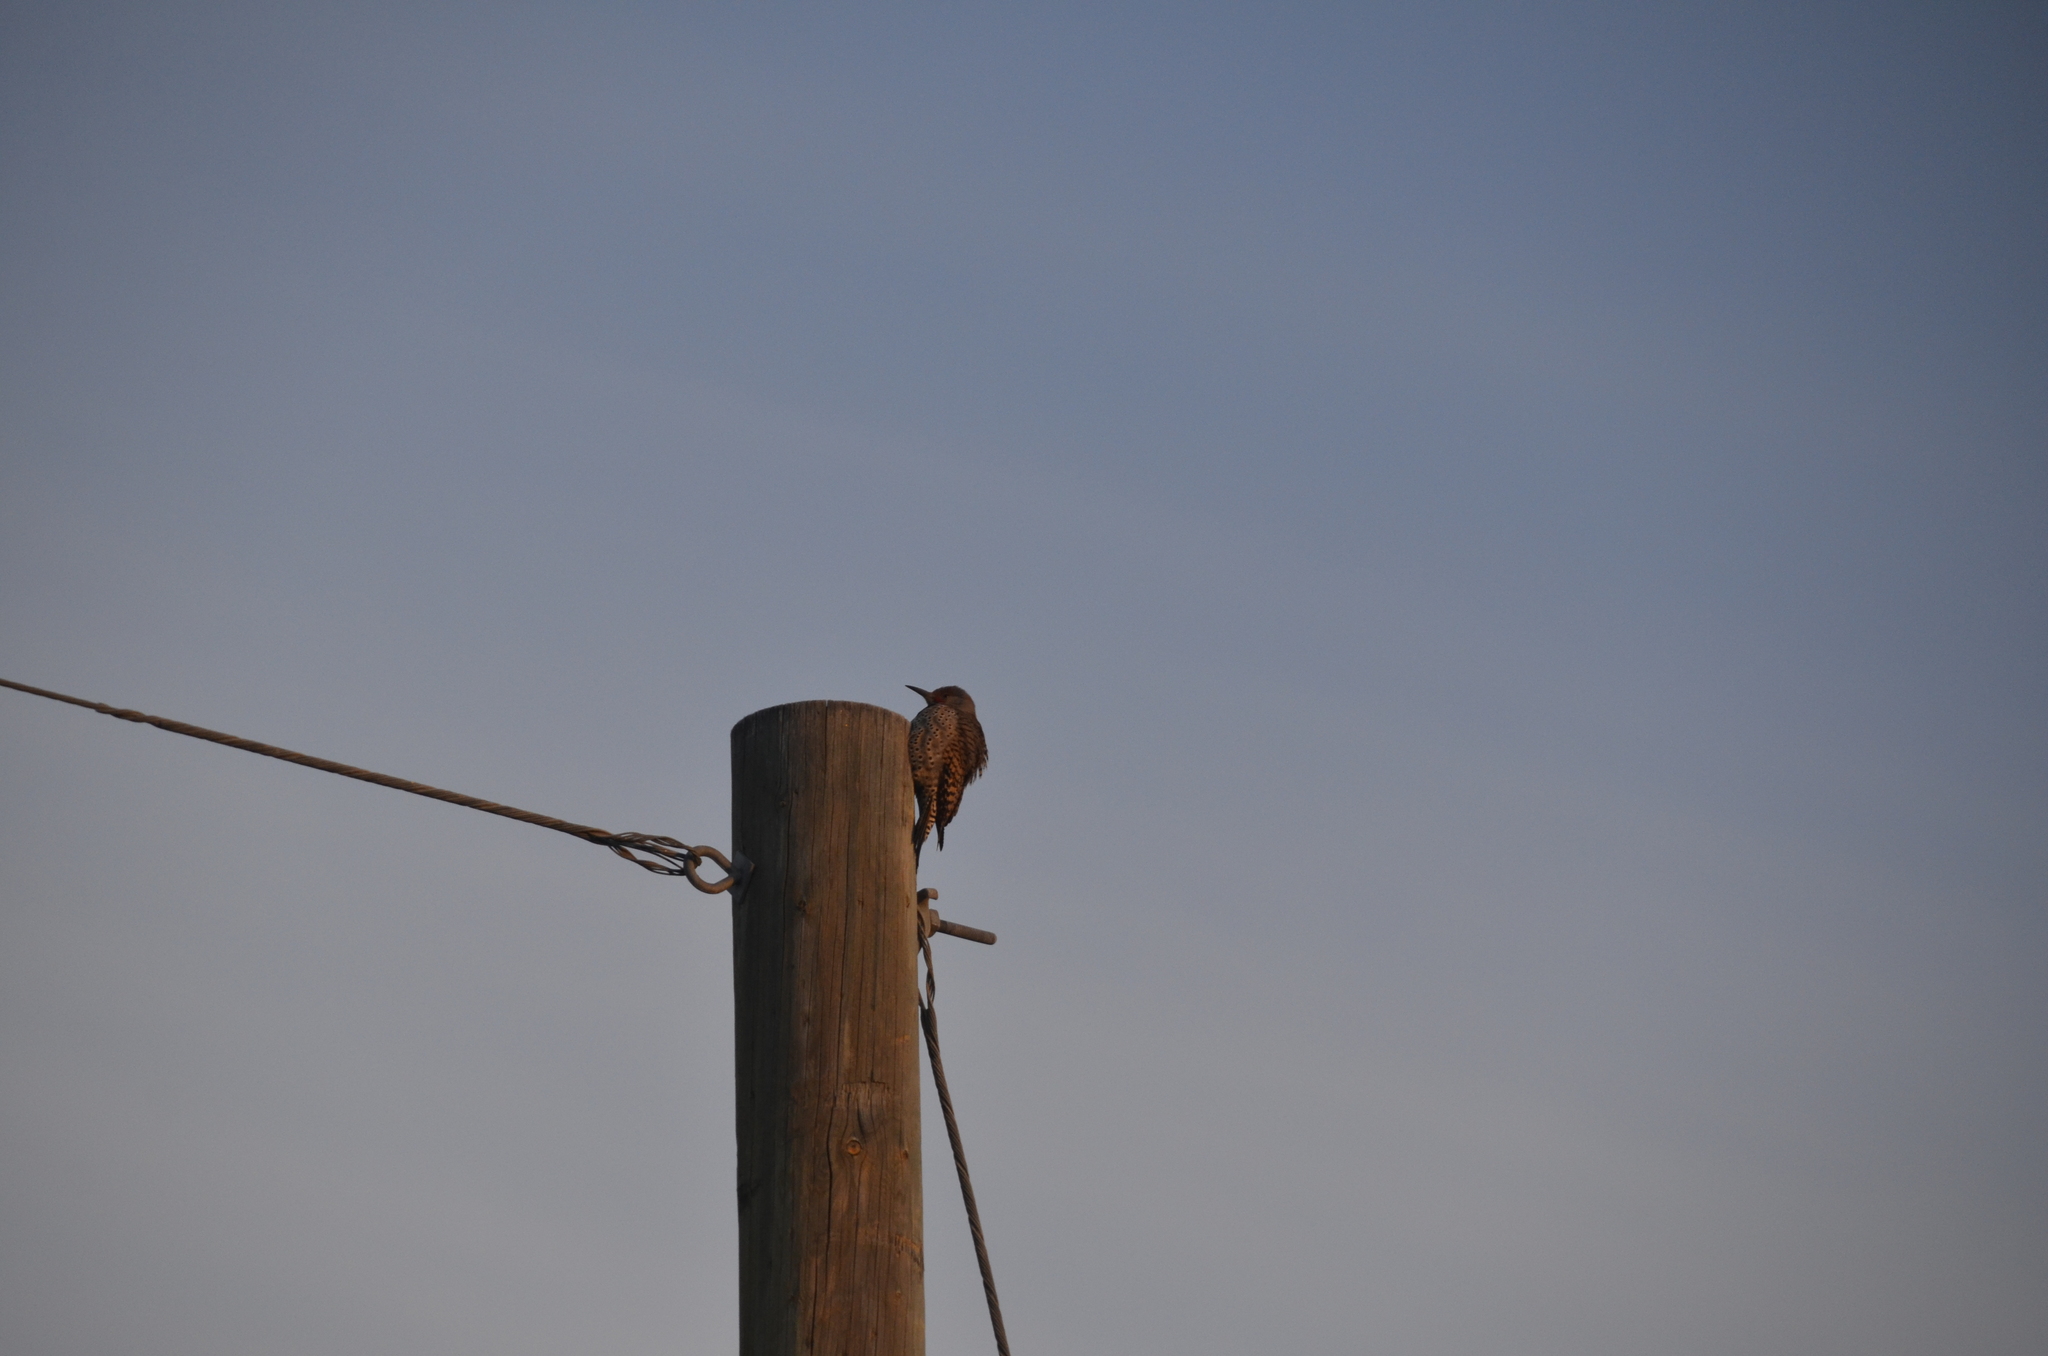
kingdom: Animalia
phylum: Chordata
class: Aves
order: Piciformes
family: Picidae
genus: Colaptes
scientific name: Colaptes auratus
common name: Northern flicker
